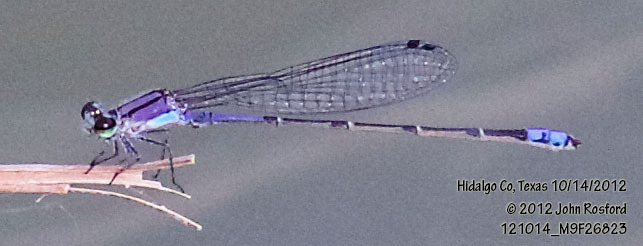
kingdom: Animalia
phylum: Arthropoda
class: Insecta
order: Odonata
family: Coenagrionidae
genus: Enallagma
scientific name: Enallagma novaehispaniae
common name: Neotropical bluet
